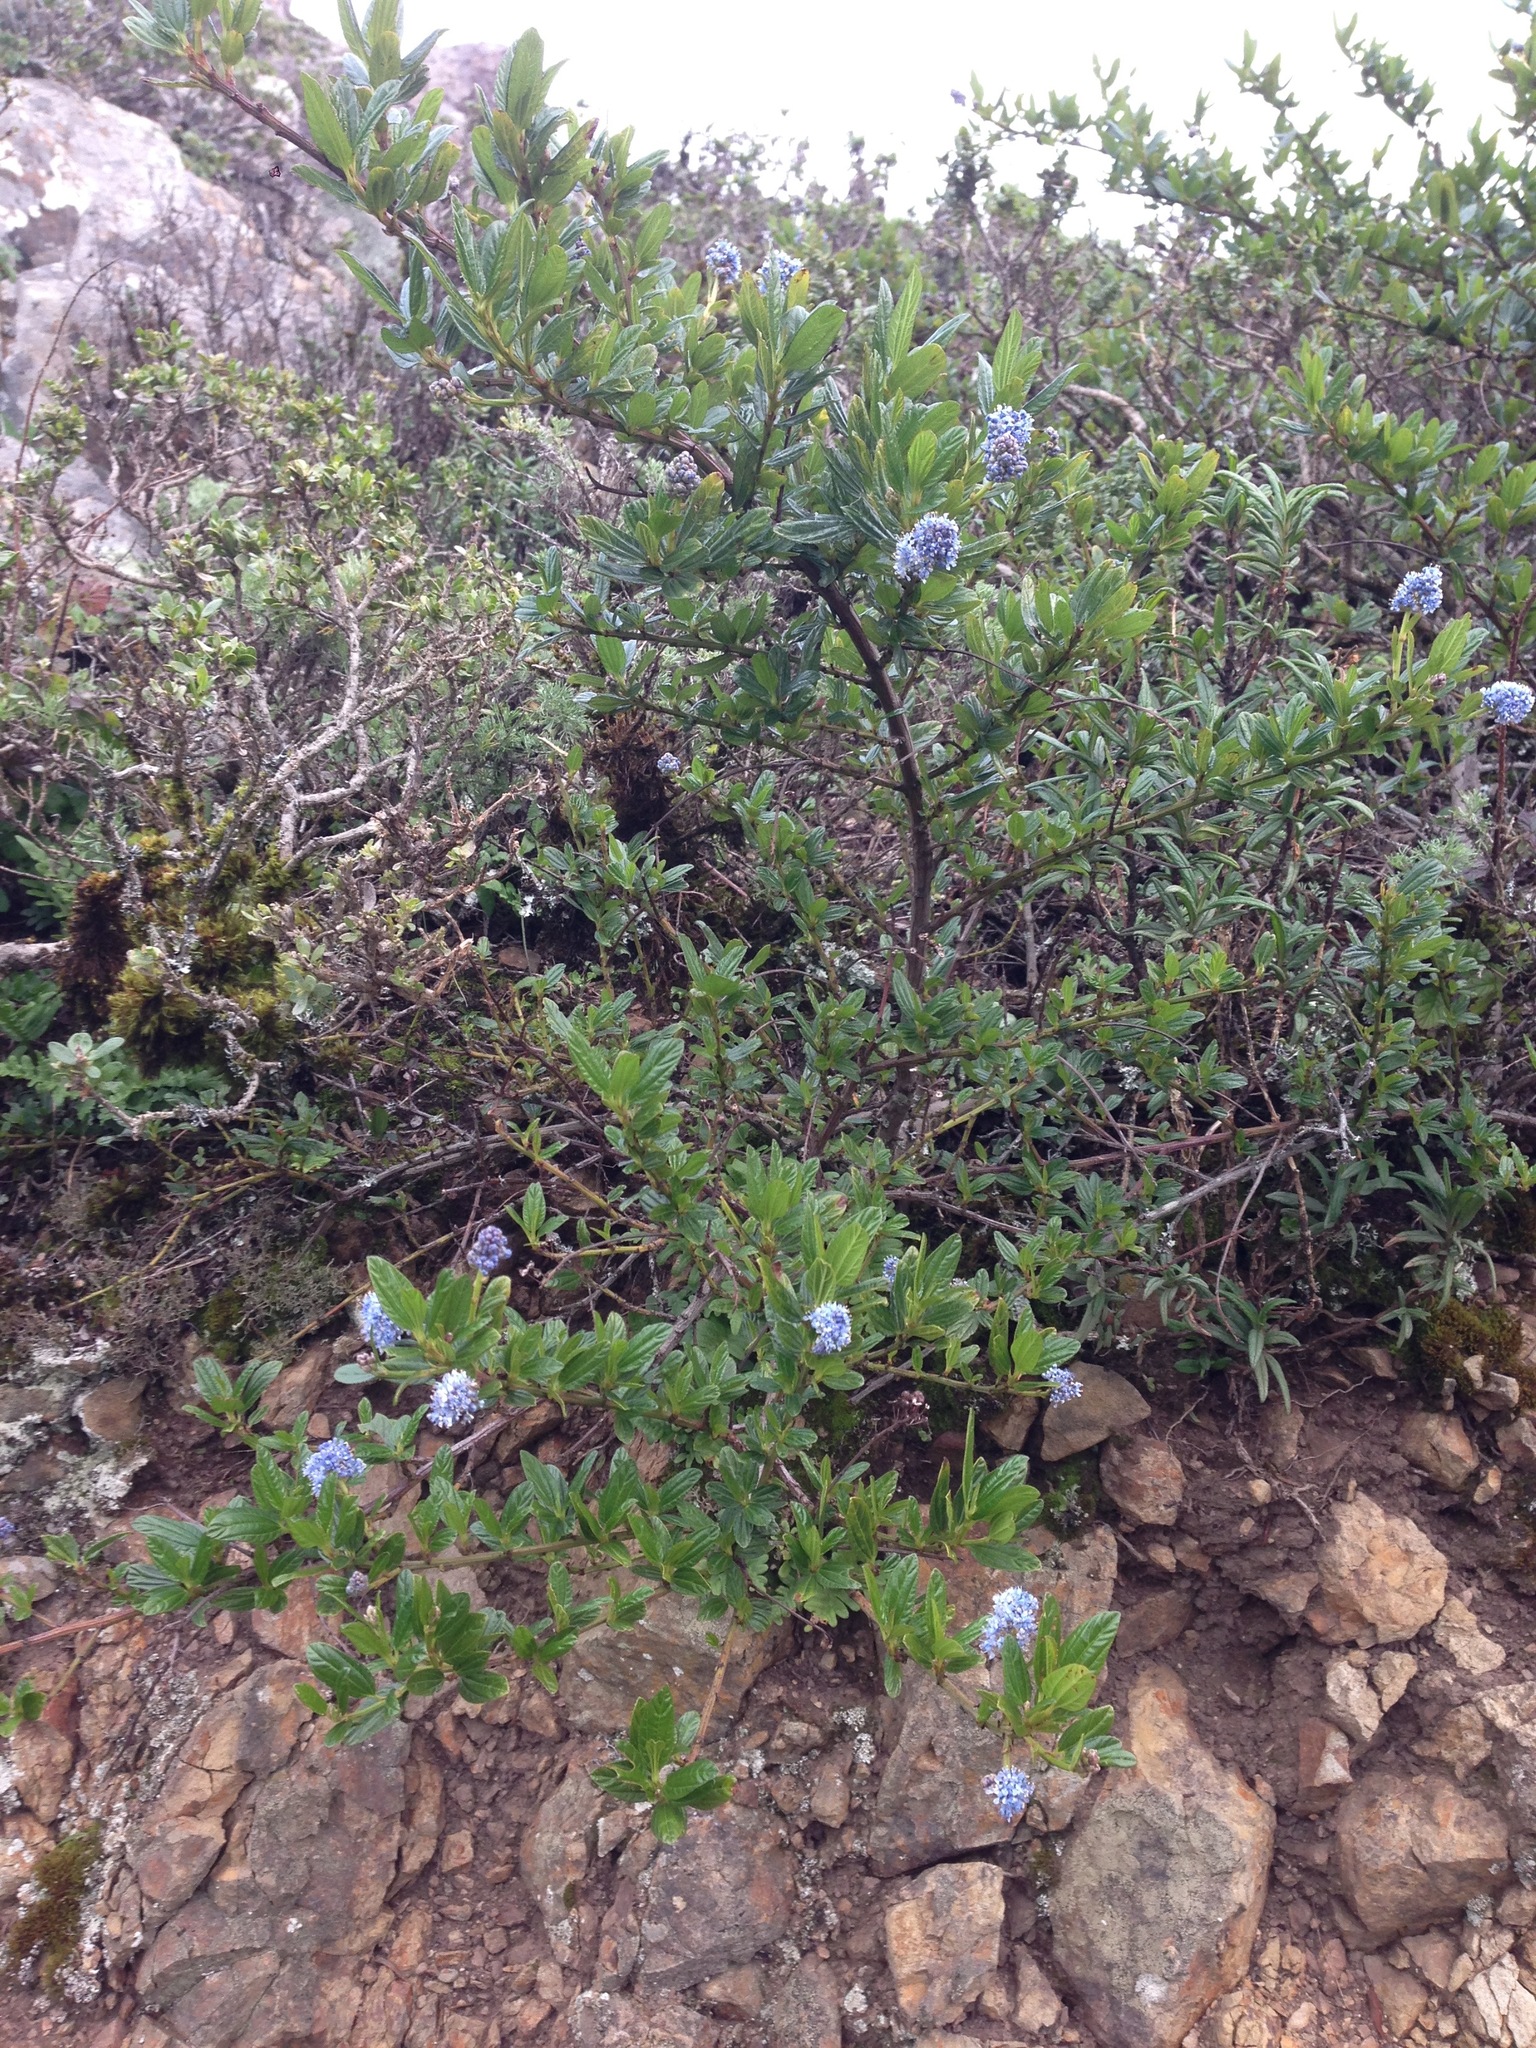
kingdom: Plantae
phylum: Tracheophyta
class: Magnoliopsida
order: Rosales
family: Rhamnaceae
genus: Ceanothus
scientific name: Ceanothus thyrsiflorus
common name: California-lilac
